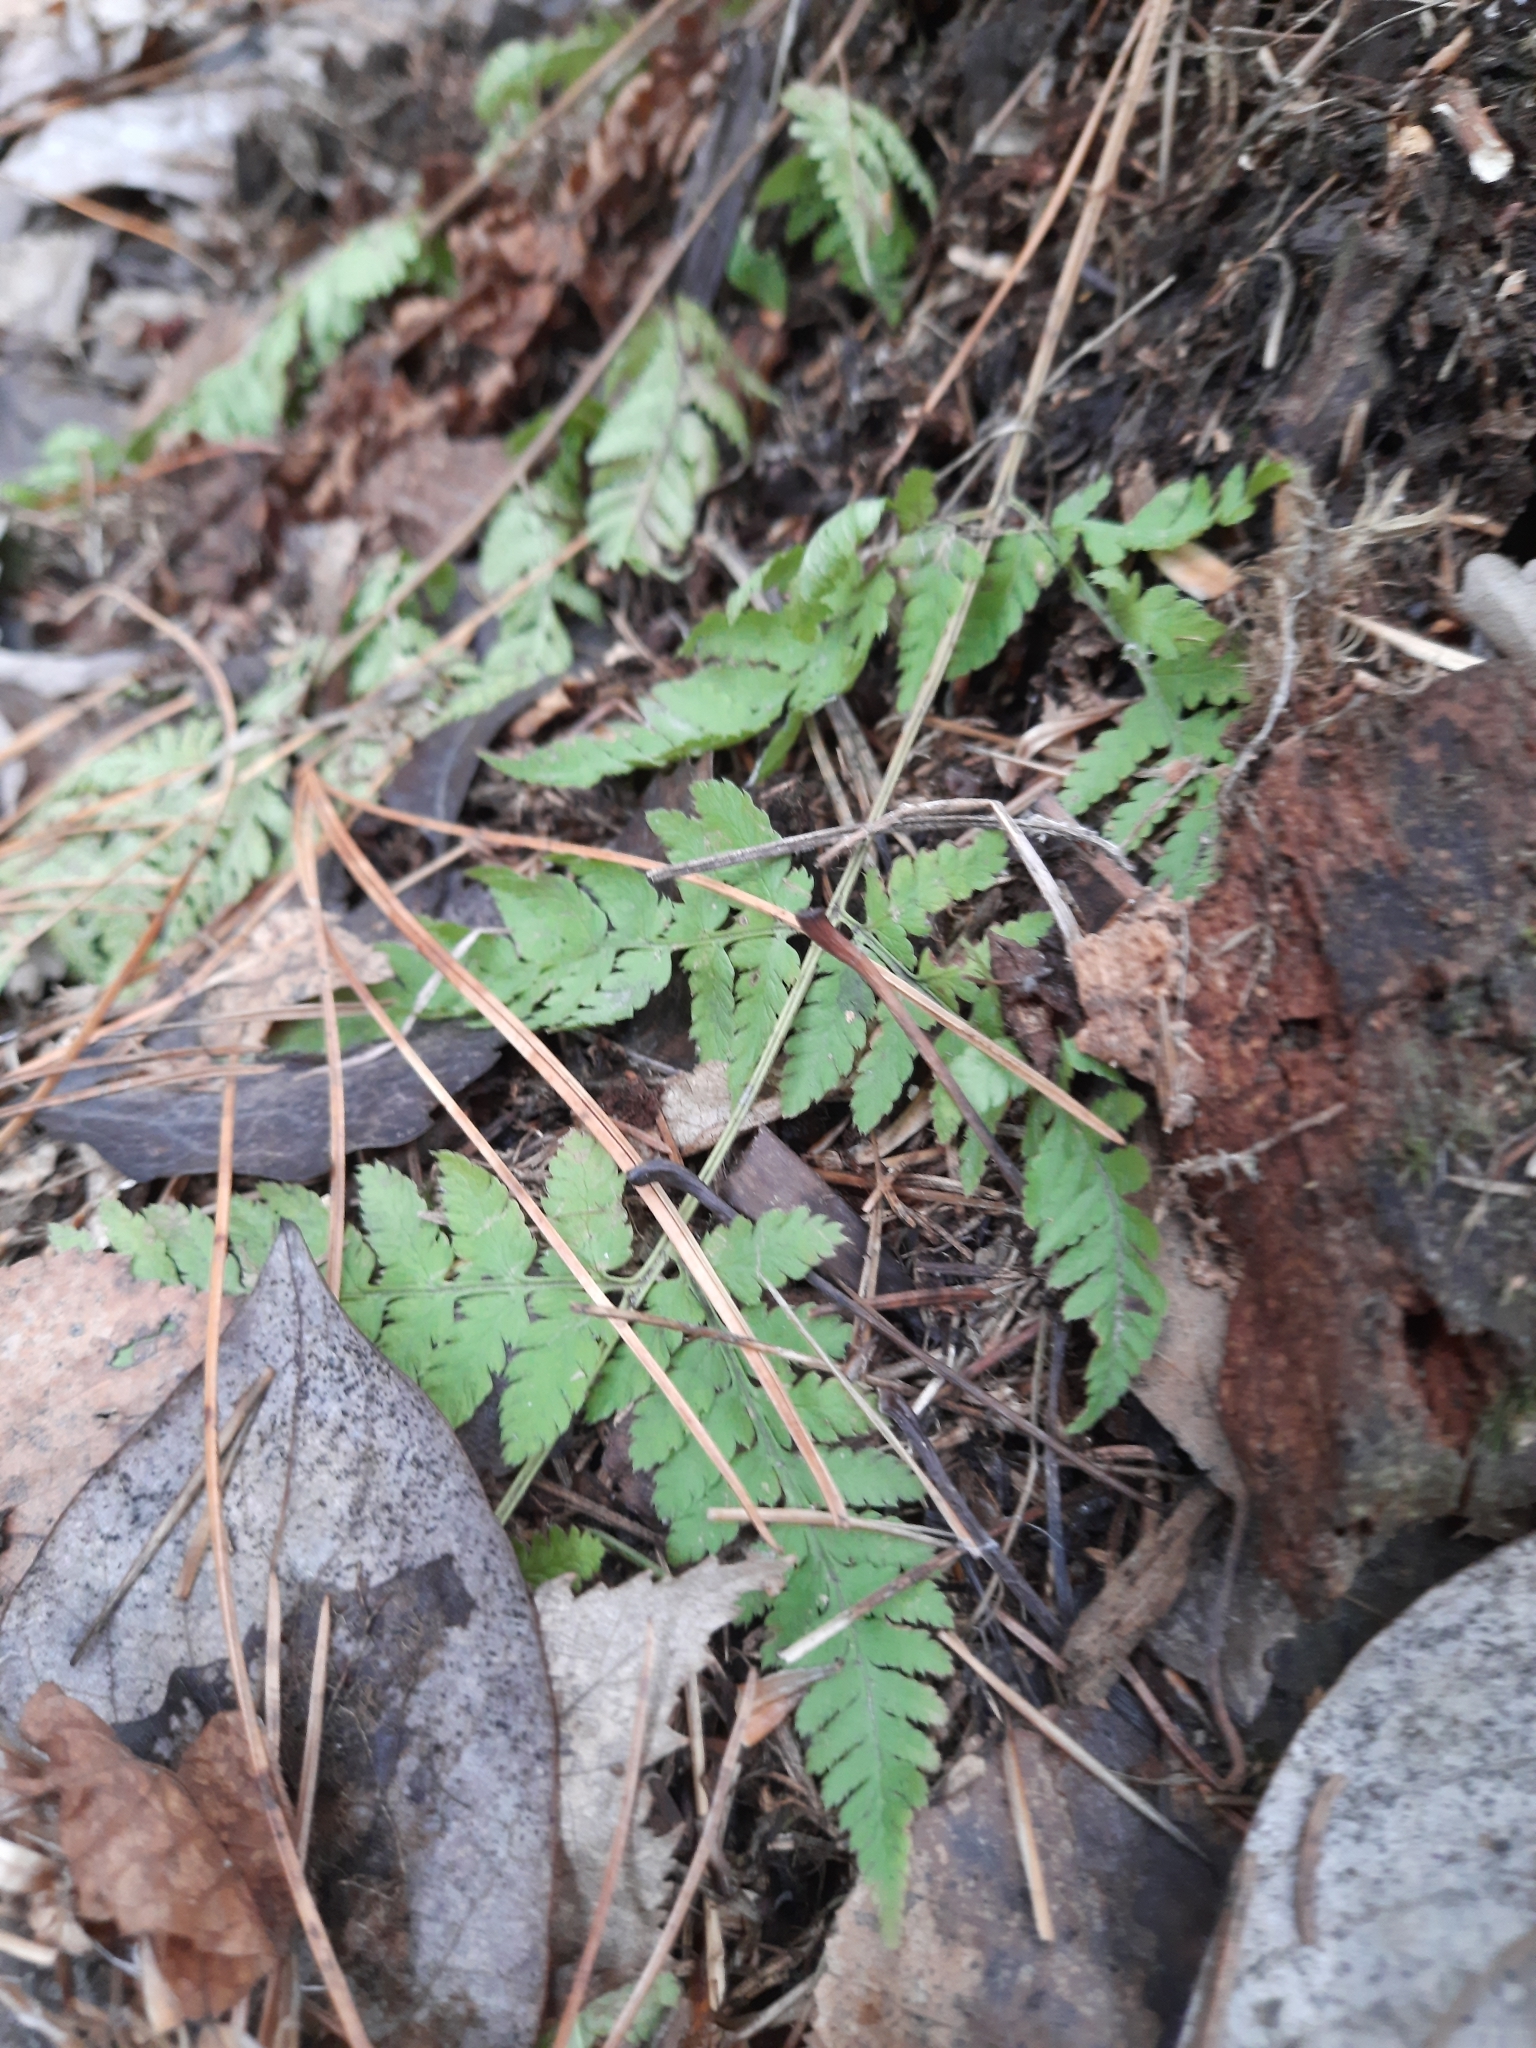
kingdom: Plantae
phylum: Tracheophyta
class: Polypodiopsida
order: Polypodiales
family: Dryopteridaceae
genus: Dryopteris
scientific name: Dryopteris carthusiana
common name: Narrow buckler-fern
